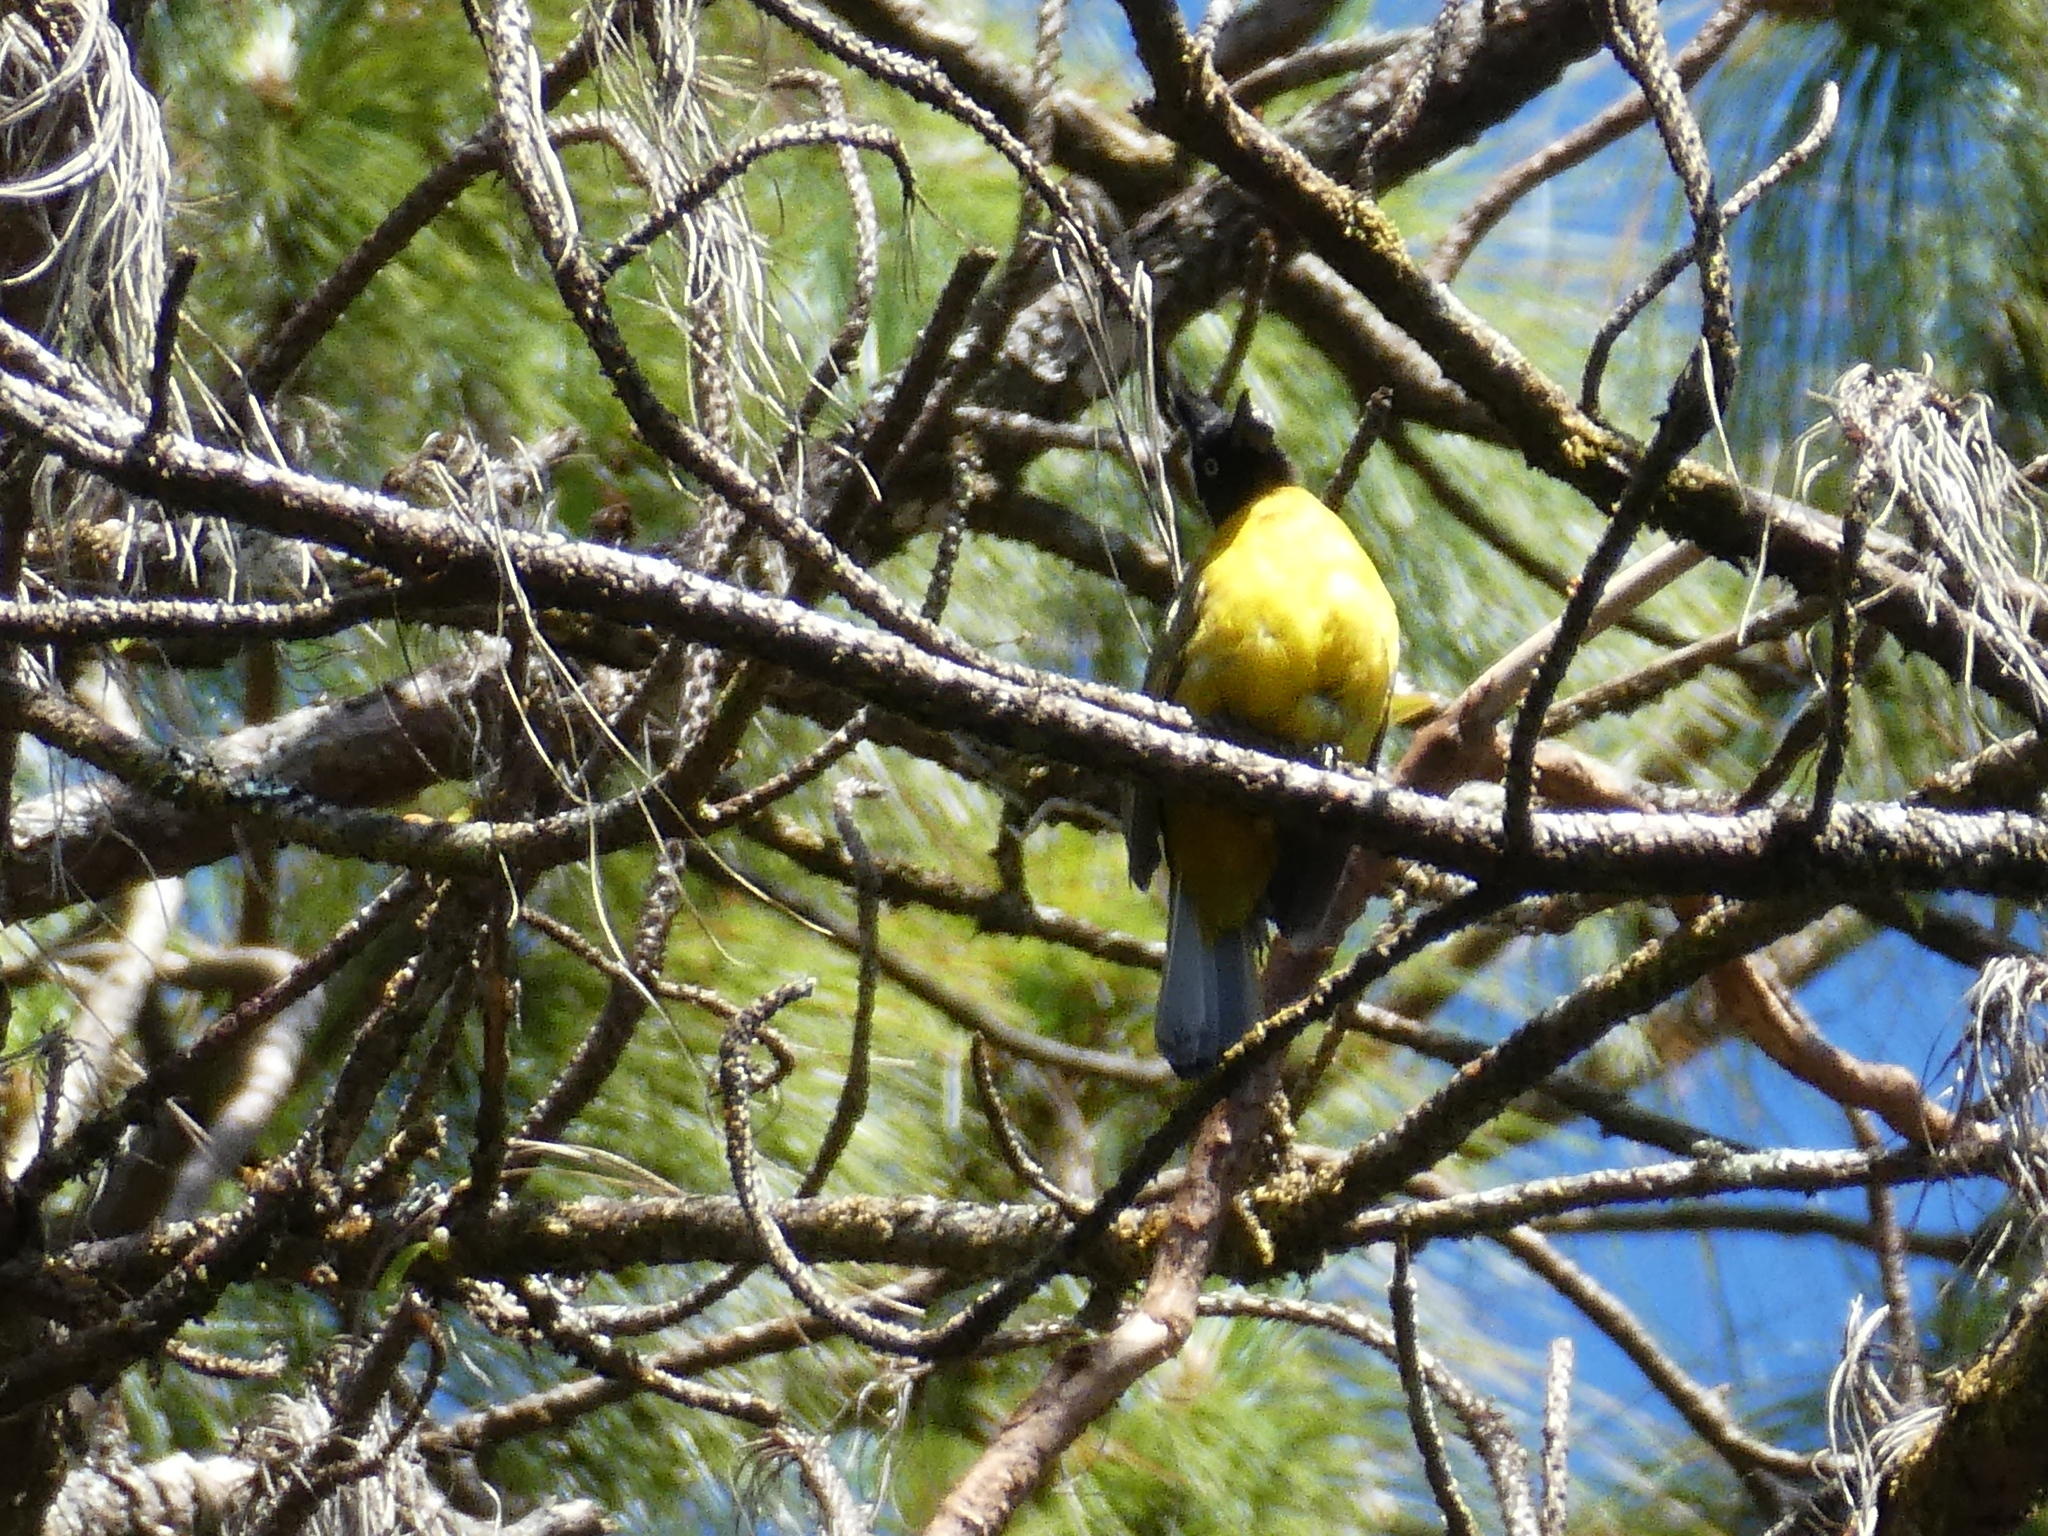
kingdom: Animalia
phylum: Chordata
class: Aves
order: Passeriformes
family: Pycnonotidae
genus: Pycnonotus
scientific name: Pycnonotus flaviventris
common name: Black-crested bulbul
